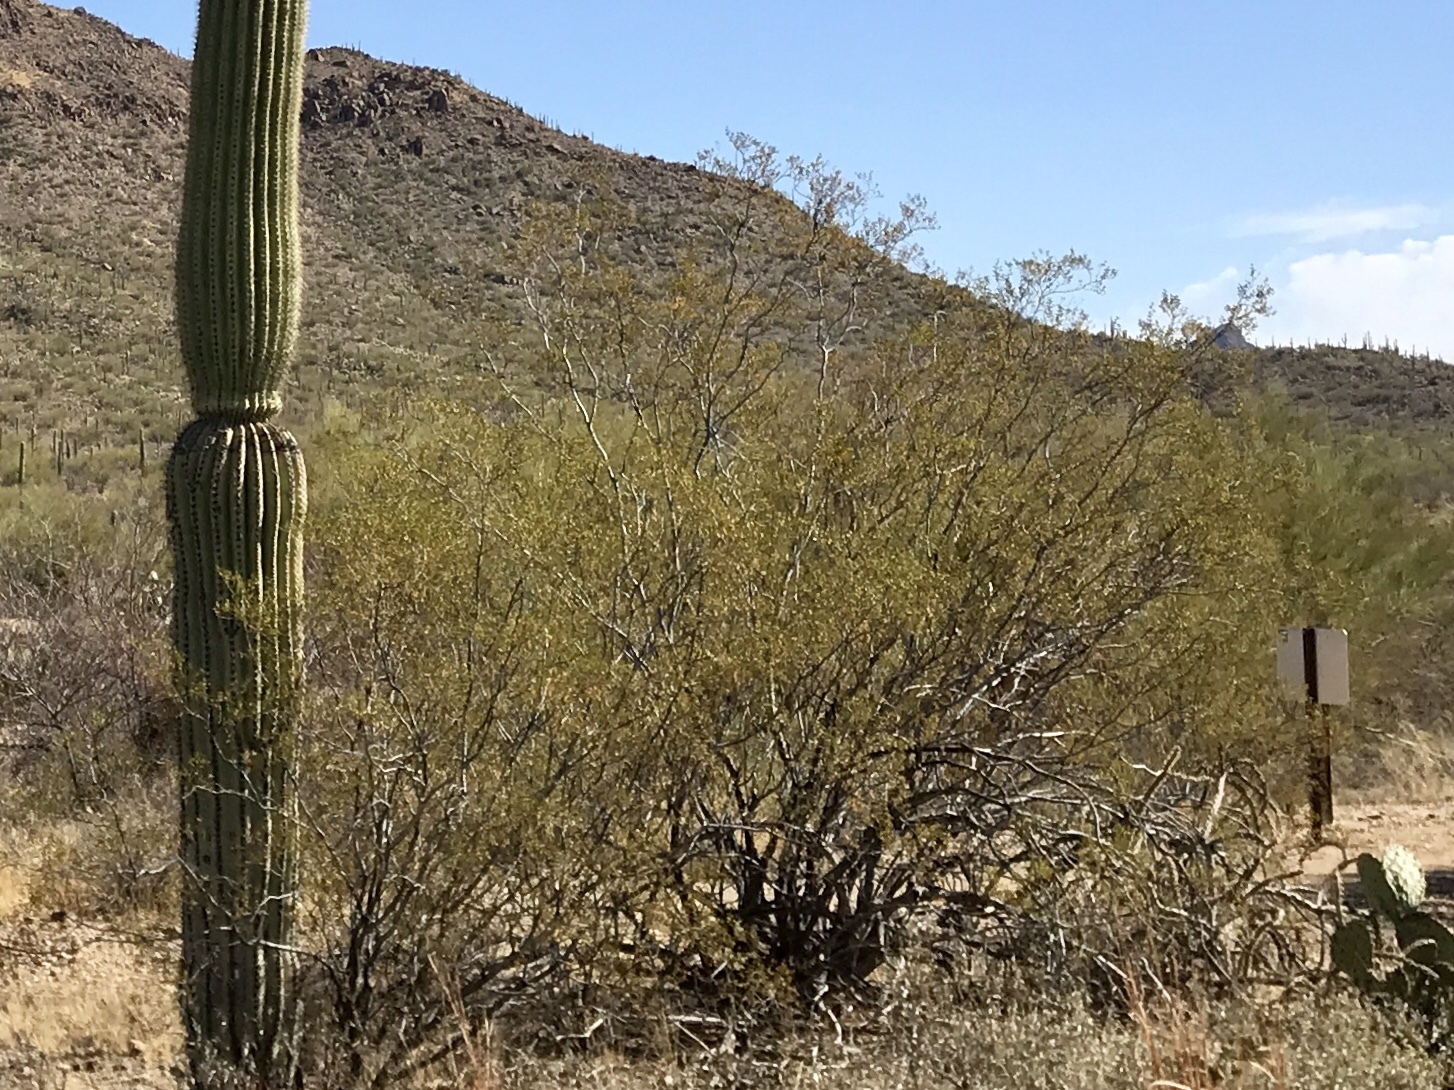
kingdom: Plantae
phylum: Tracheophyta
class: Magnoliopsida
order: Zygophyllales
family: Zygophyllaceae
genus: Larrea
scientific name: Larrea tridentata
